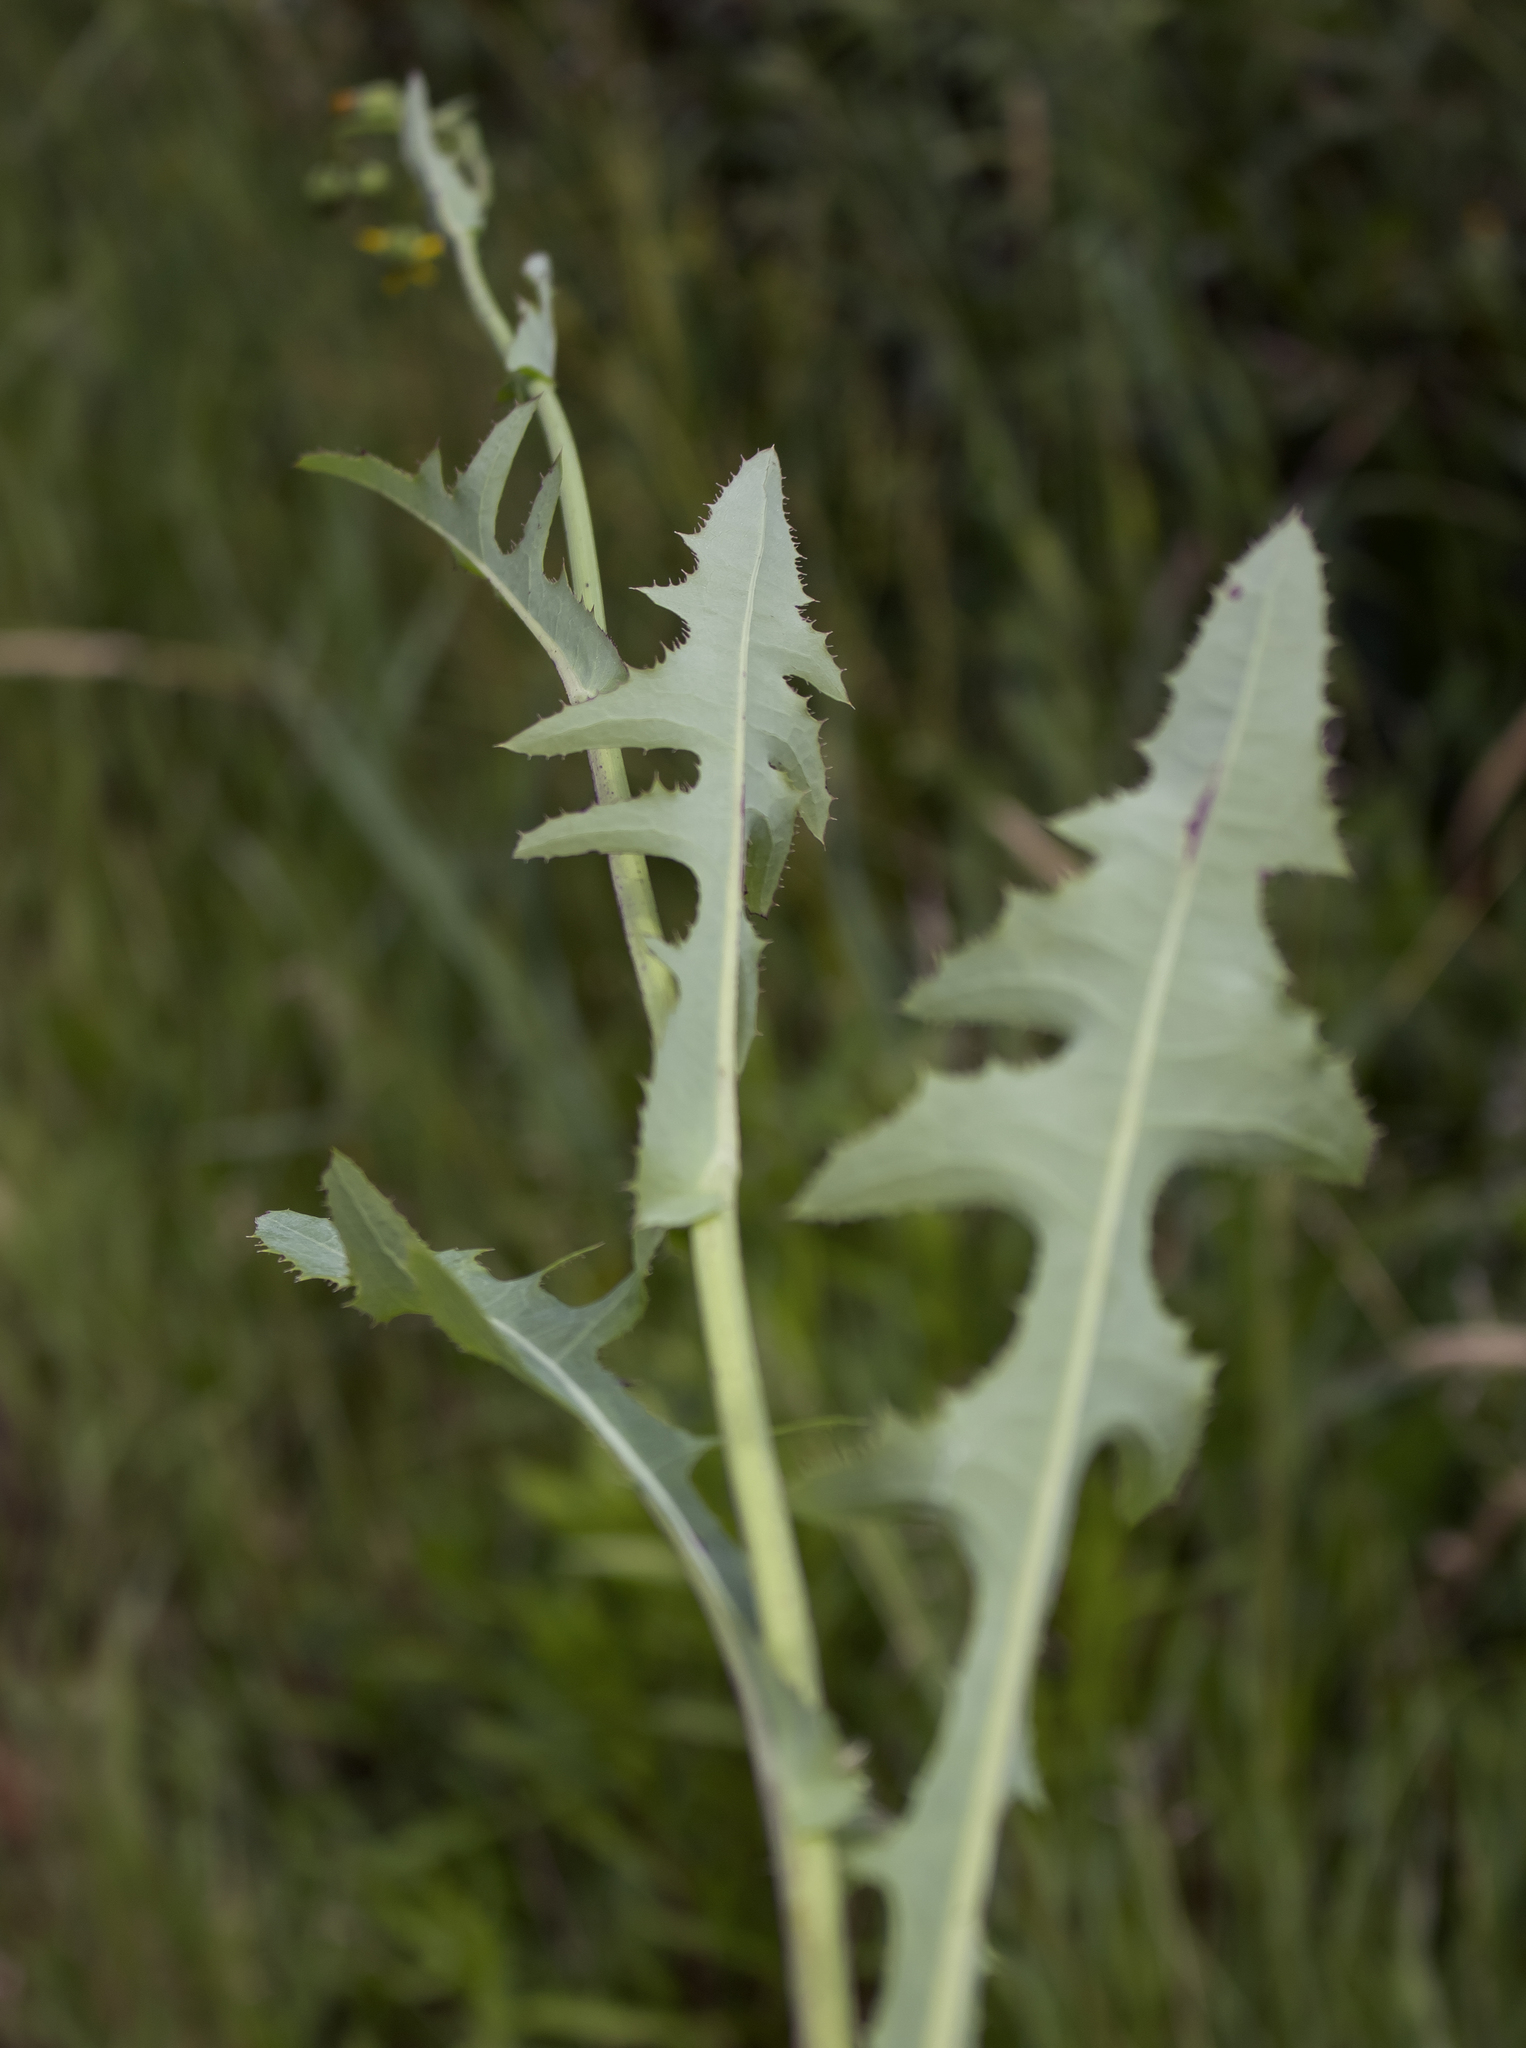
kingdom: Plantae
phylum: Tracheophyta
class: Magnoliopsida
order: Asterales
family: Asteraceae
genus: Sonchus
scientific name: Sonchus arvensis
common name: Perennial sow-thistle
